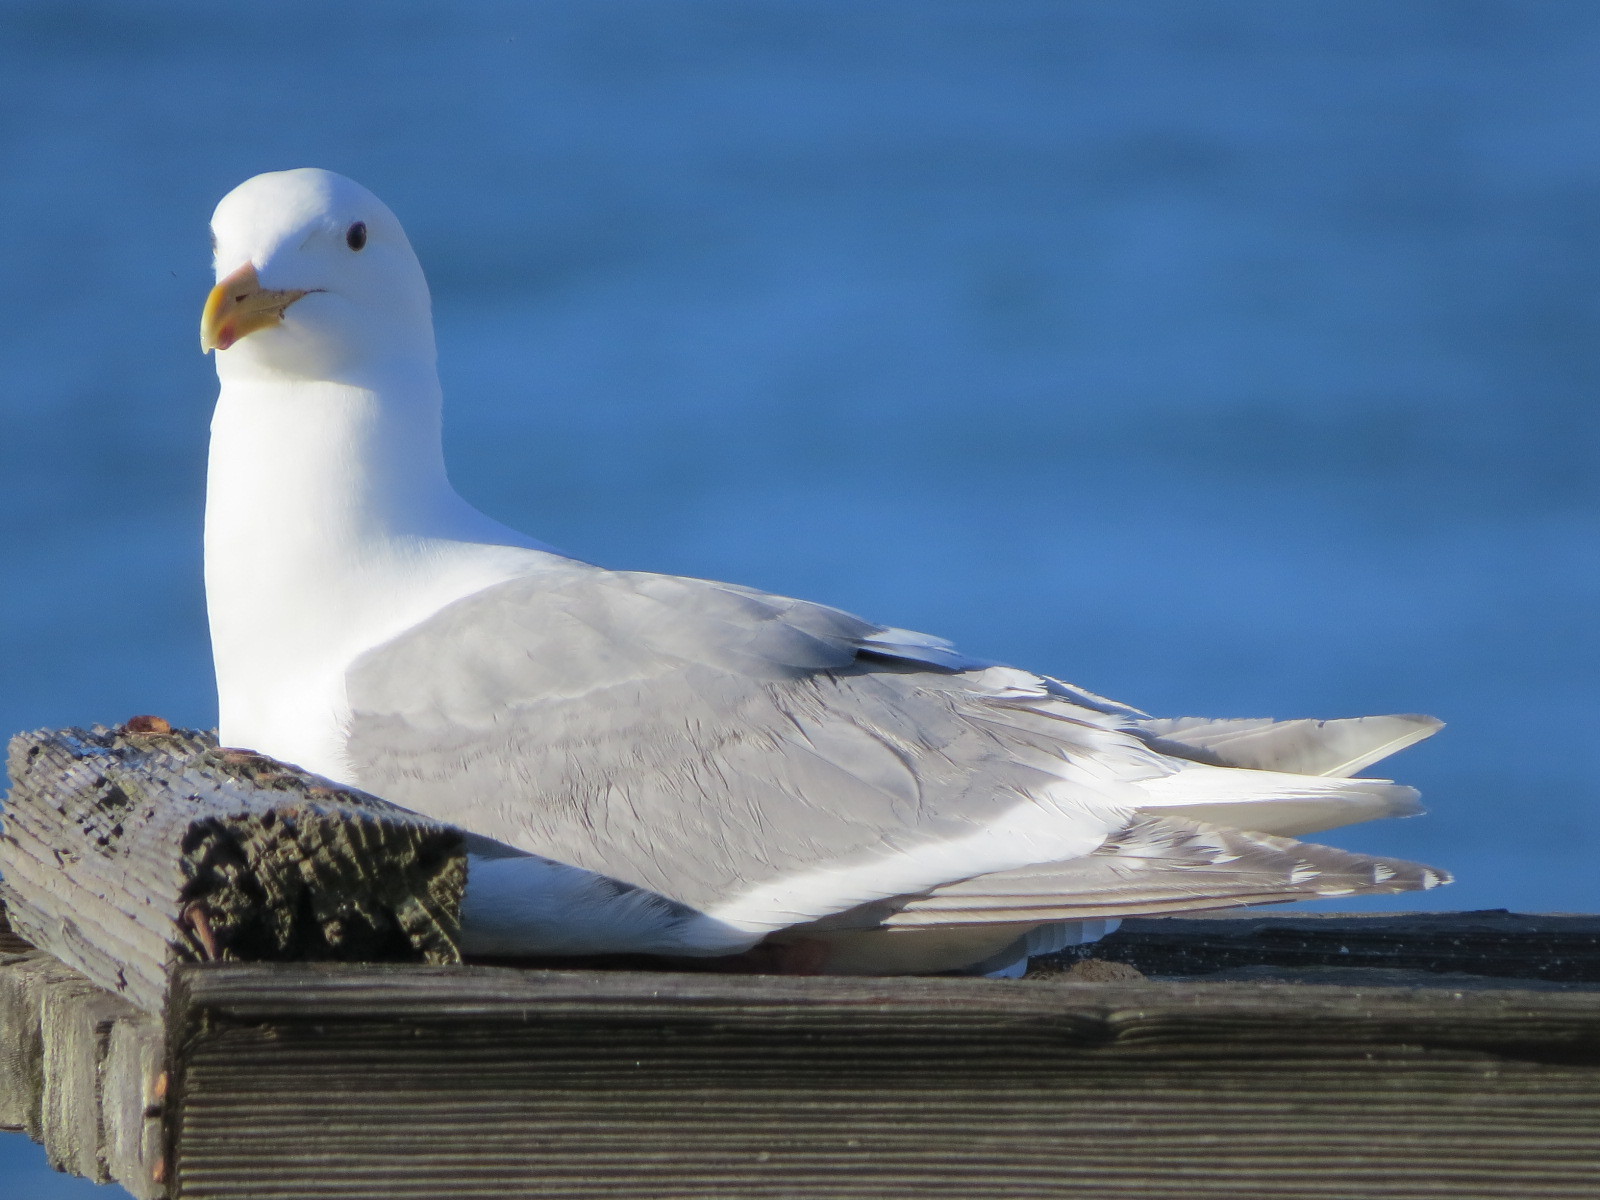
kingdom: Animalia
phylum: Chordata
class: Aves
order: Charadriiformes
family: Laridae
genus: Larus
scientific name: Larus glaucescens
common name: Glaucous-winged gull
